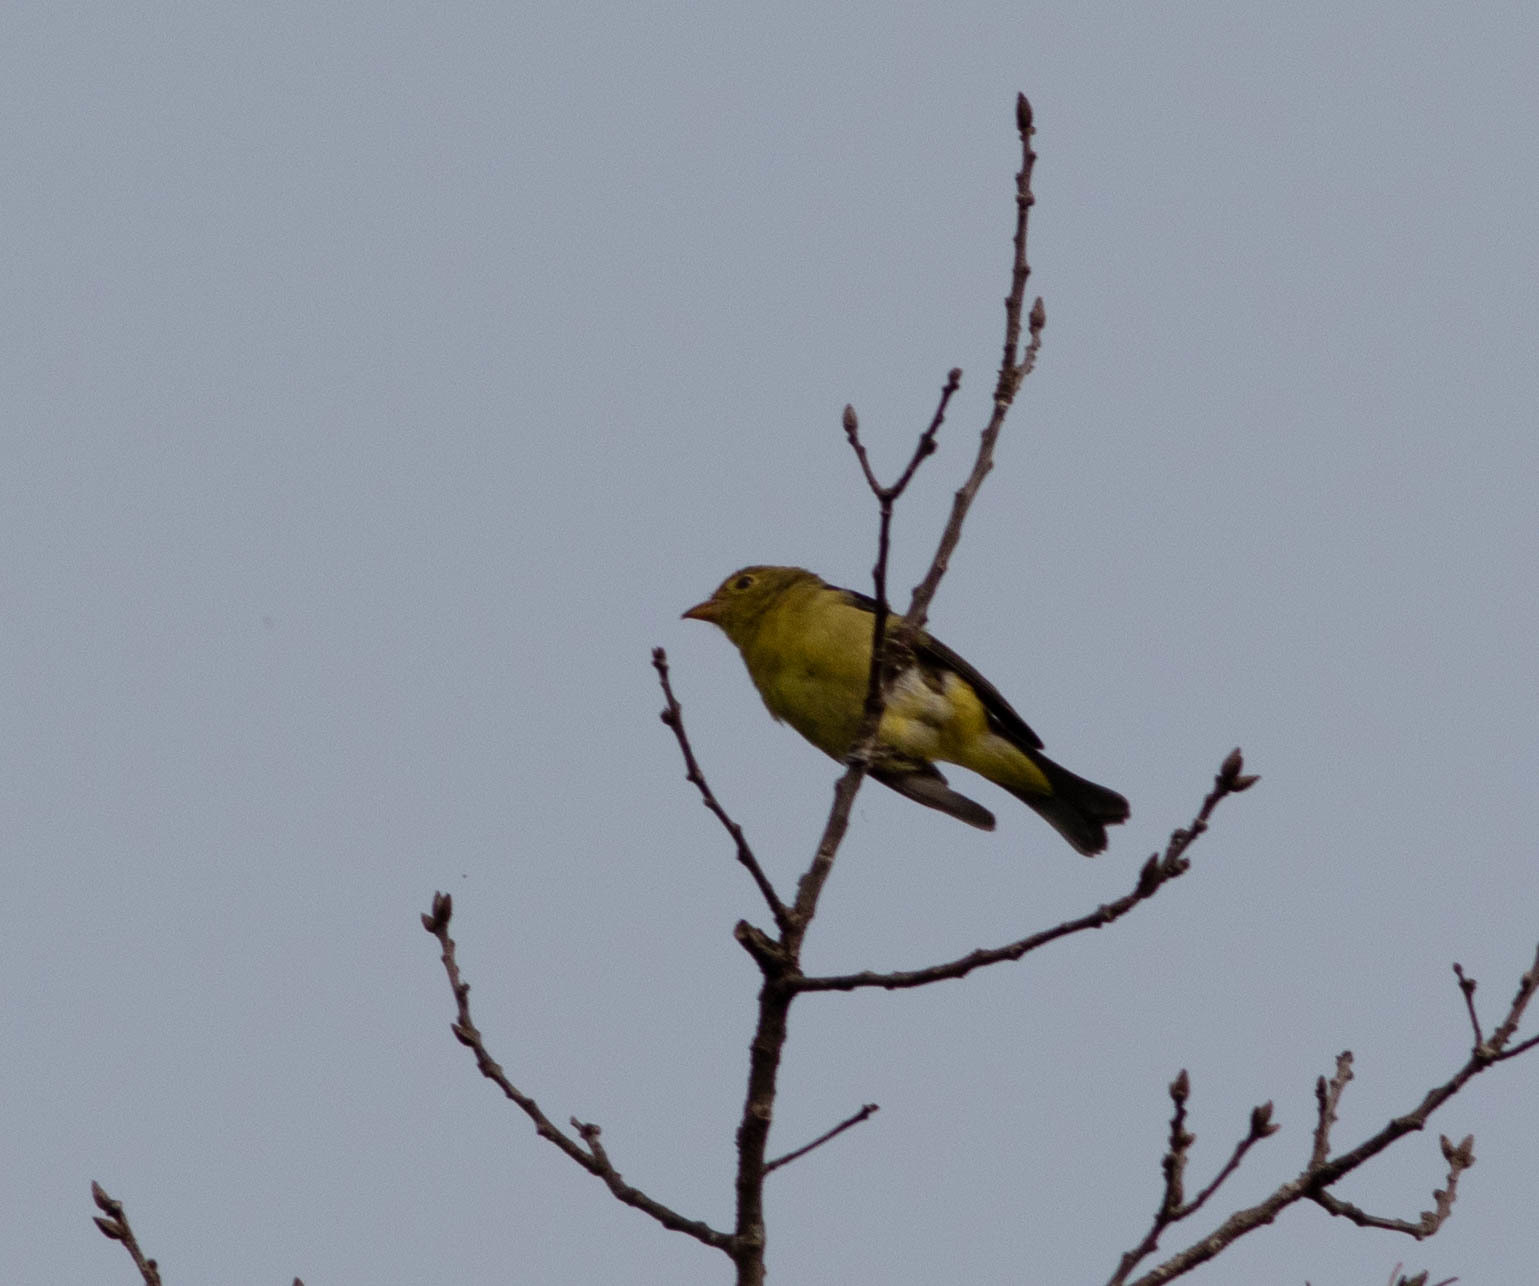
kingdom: Animalia
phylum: Chordata
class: Aves
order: Passeriformes
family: Cardinalidae
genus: Piranga
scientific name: Piranga olivacea
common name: Scarlet tanager
